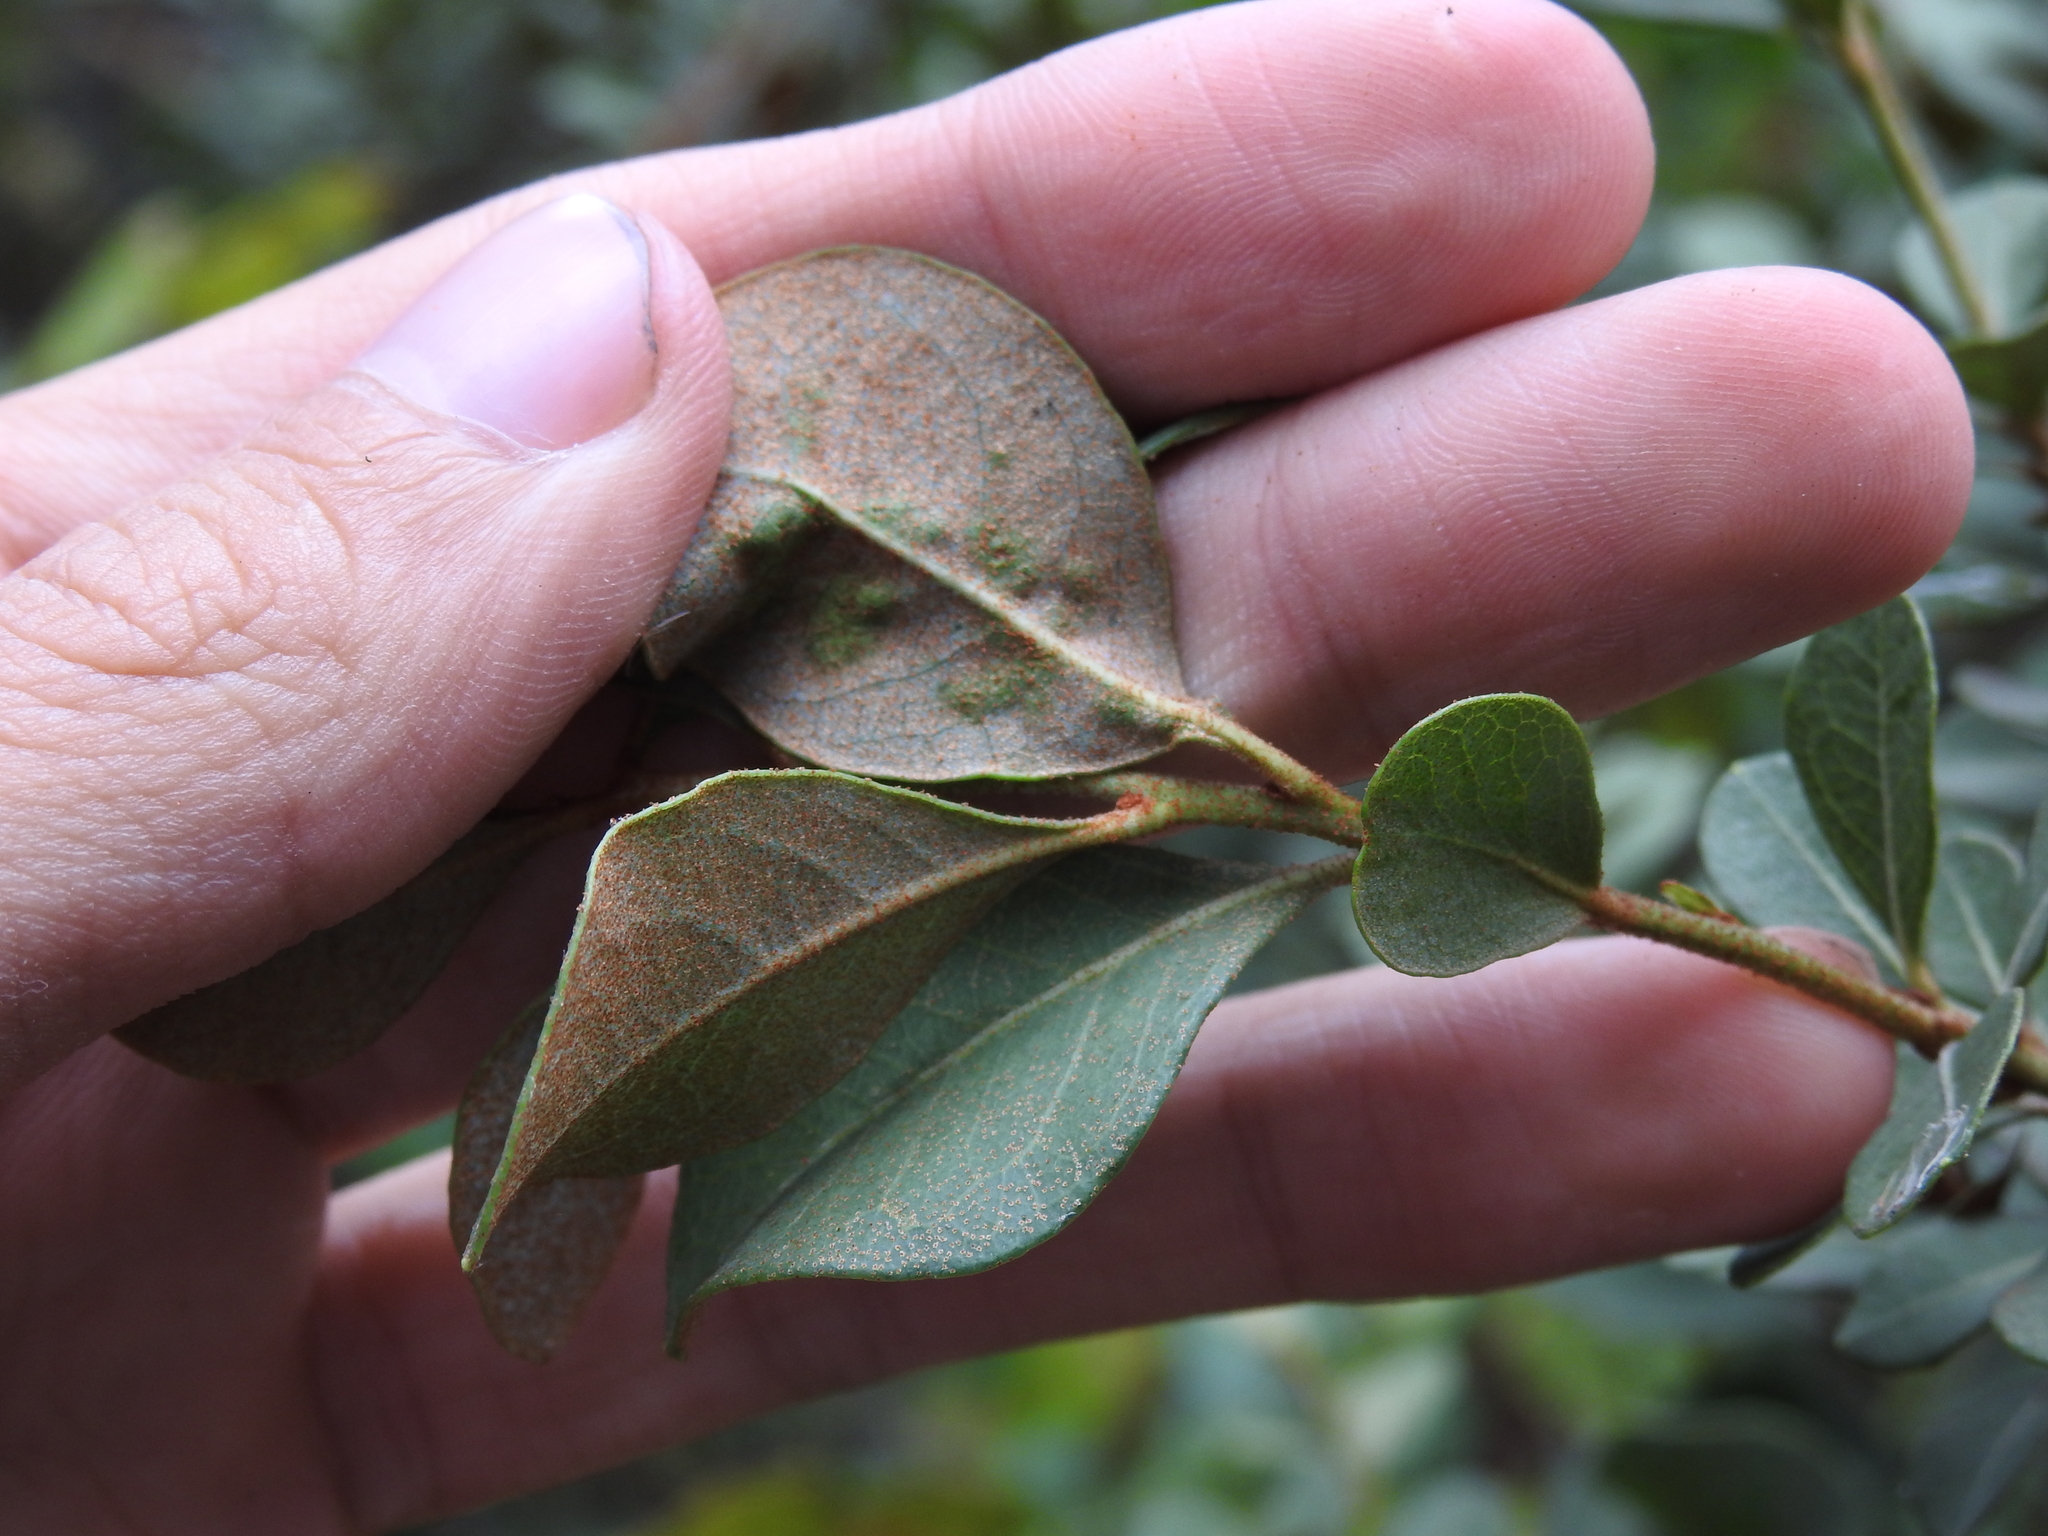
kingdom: Plantae
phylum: Tracheophyta
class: Magnoliopsida
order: Ericales
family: Ericaceae
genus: Lyonia
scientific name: Lyonia fruticosa
